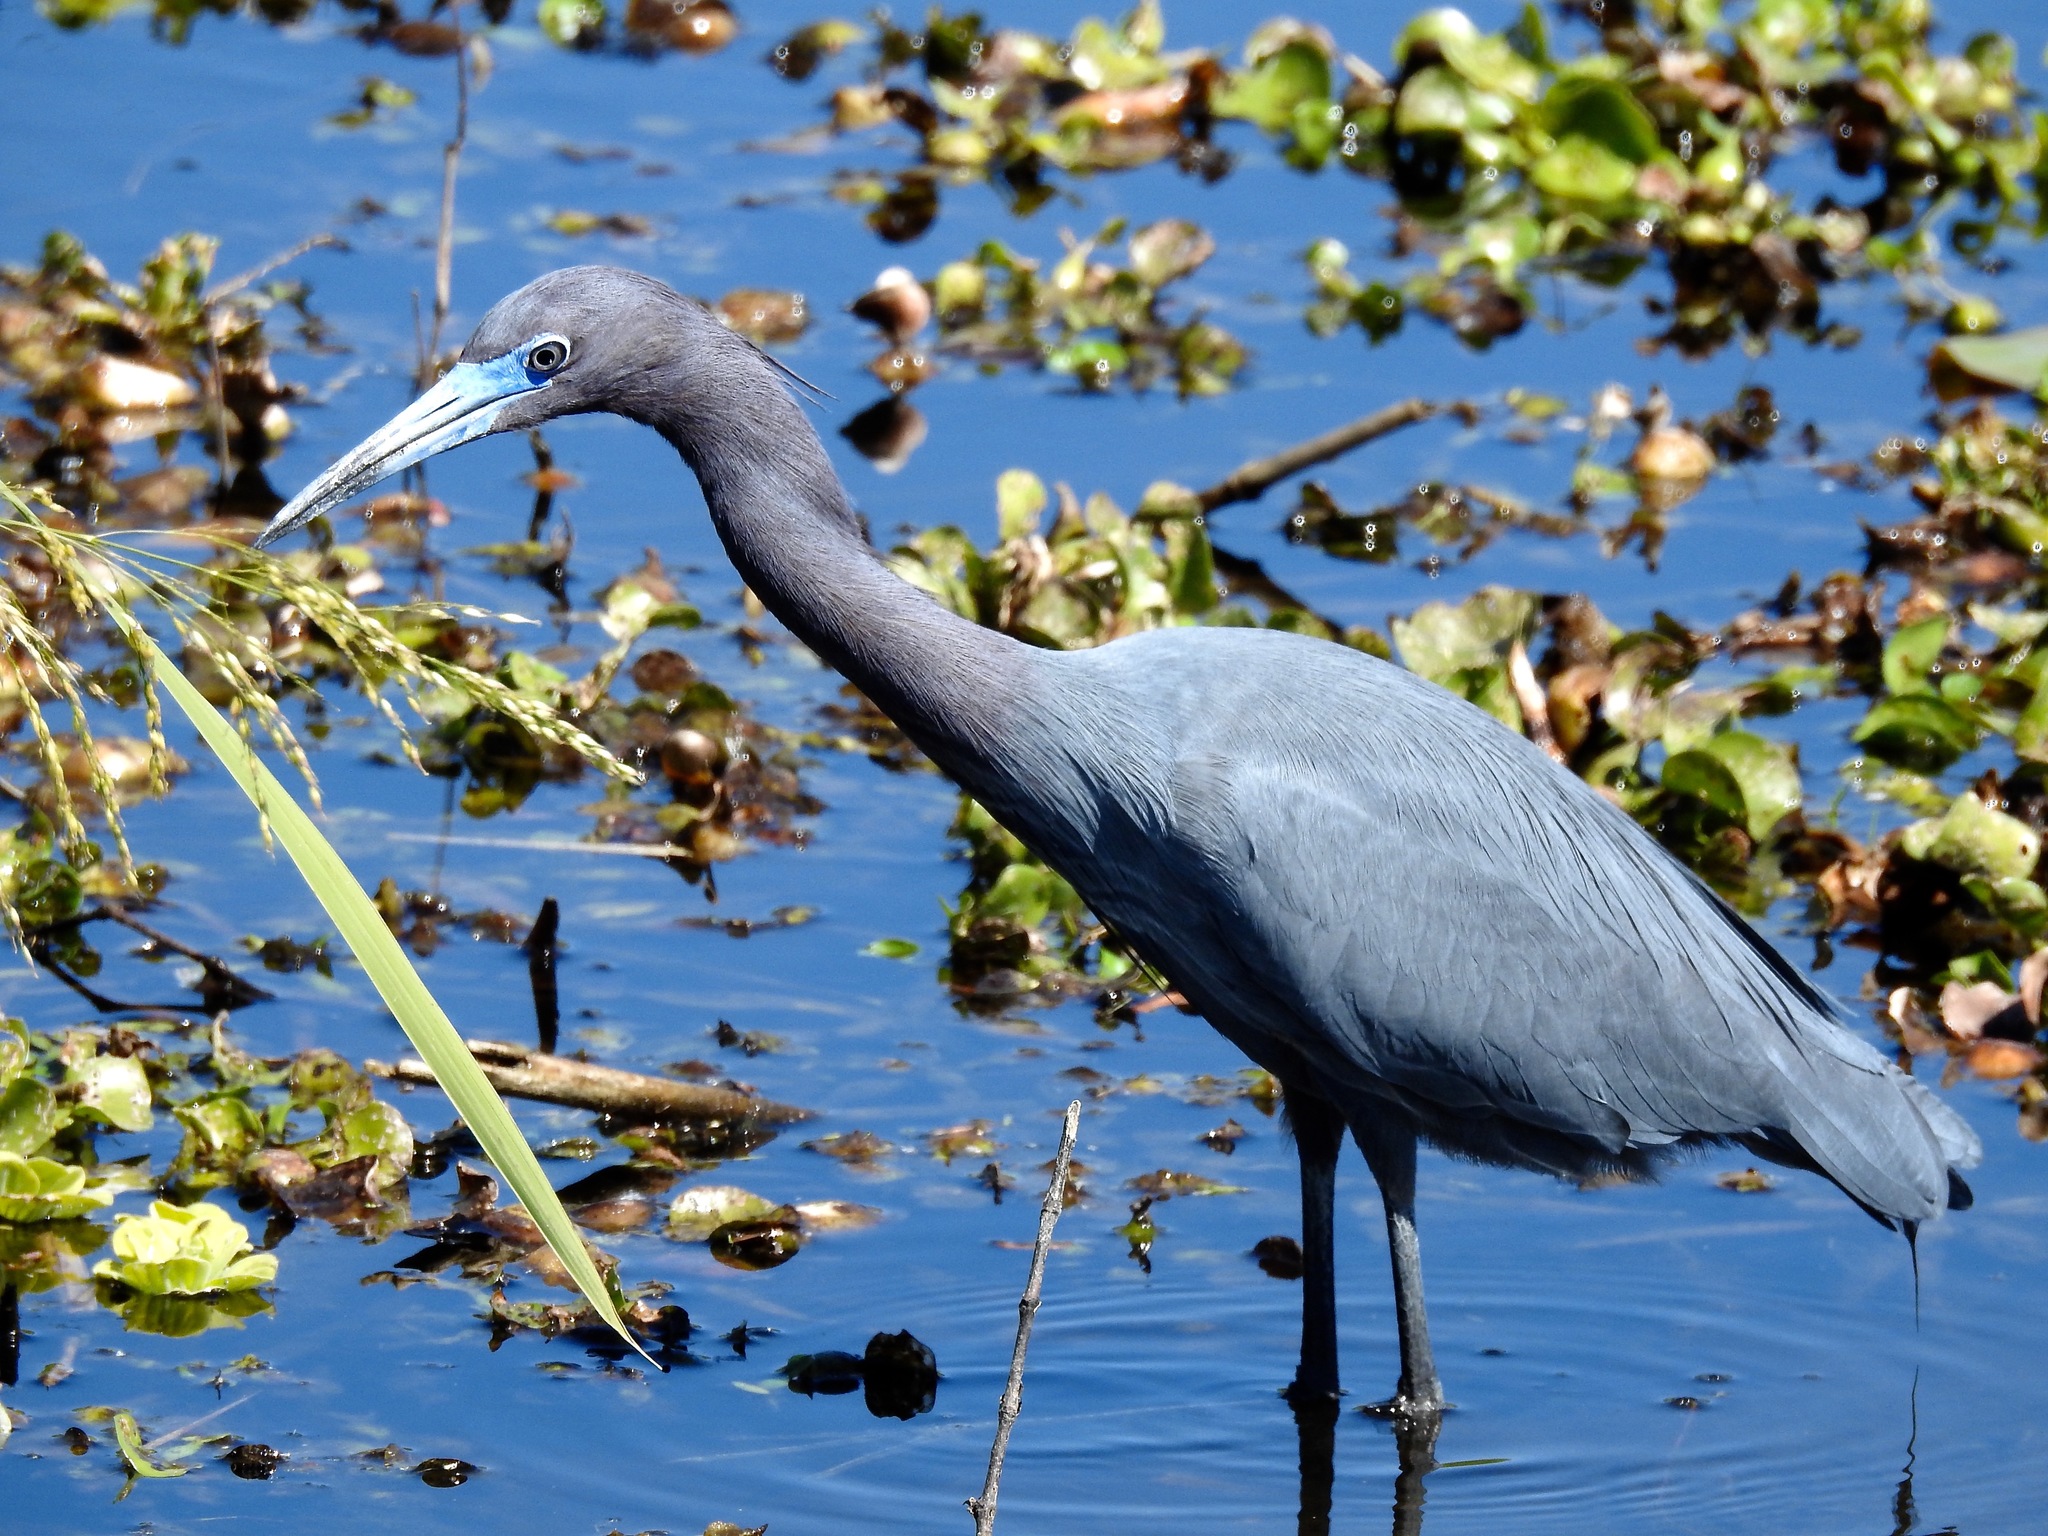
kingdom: Animalia
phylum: Chordata
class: Aves
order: Pelecaniformes
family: Ardeidae
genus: Egretta
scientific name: Egretta caerulea
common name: Little blue heron
